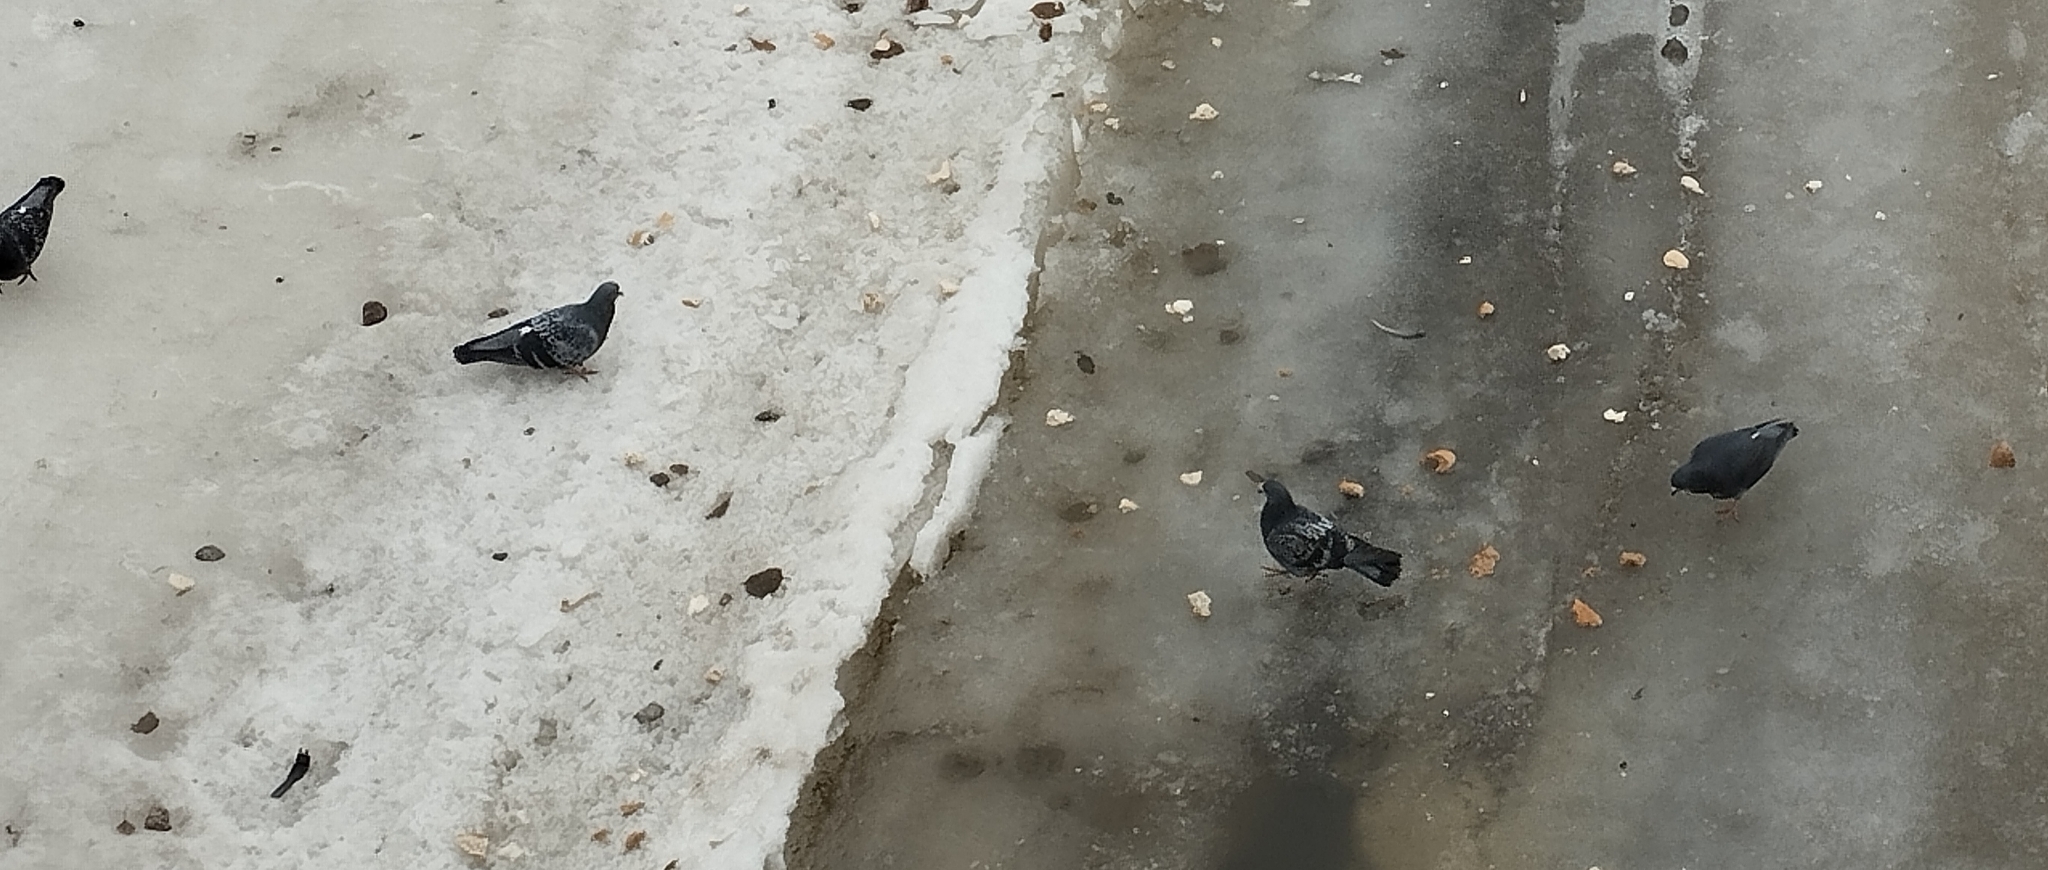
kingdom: Animalia
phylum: Chordata
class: Aves
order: Columbiformes
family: Columbidae
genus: Columba
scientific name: Columba livia
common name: Rock pigeon
